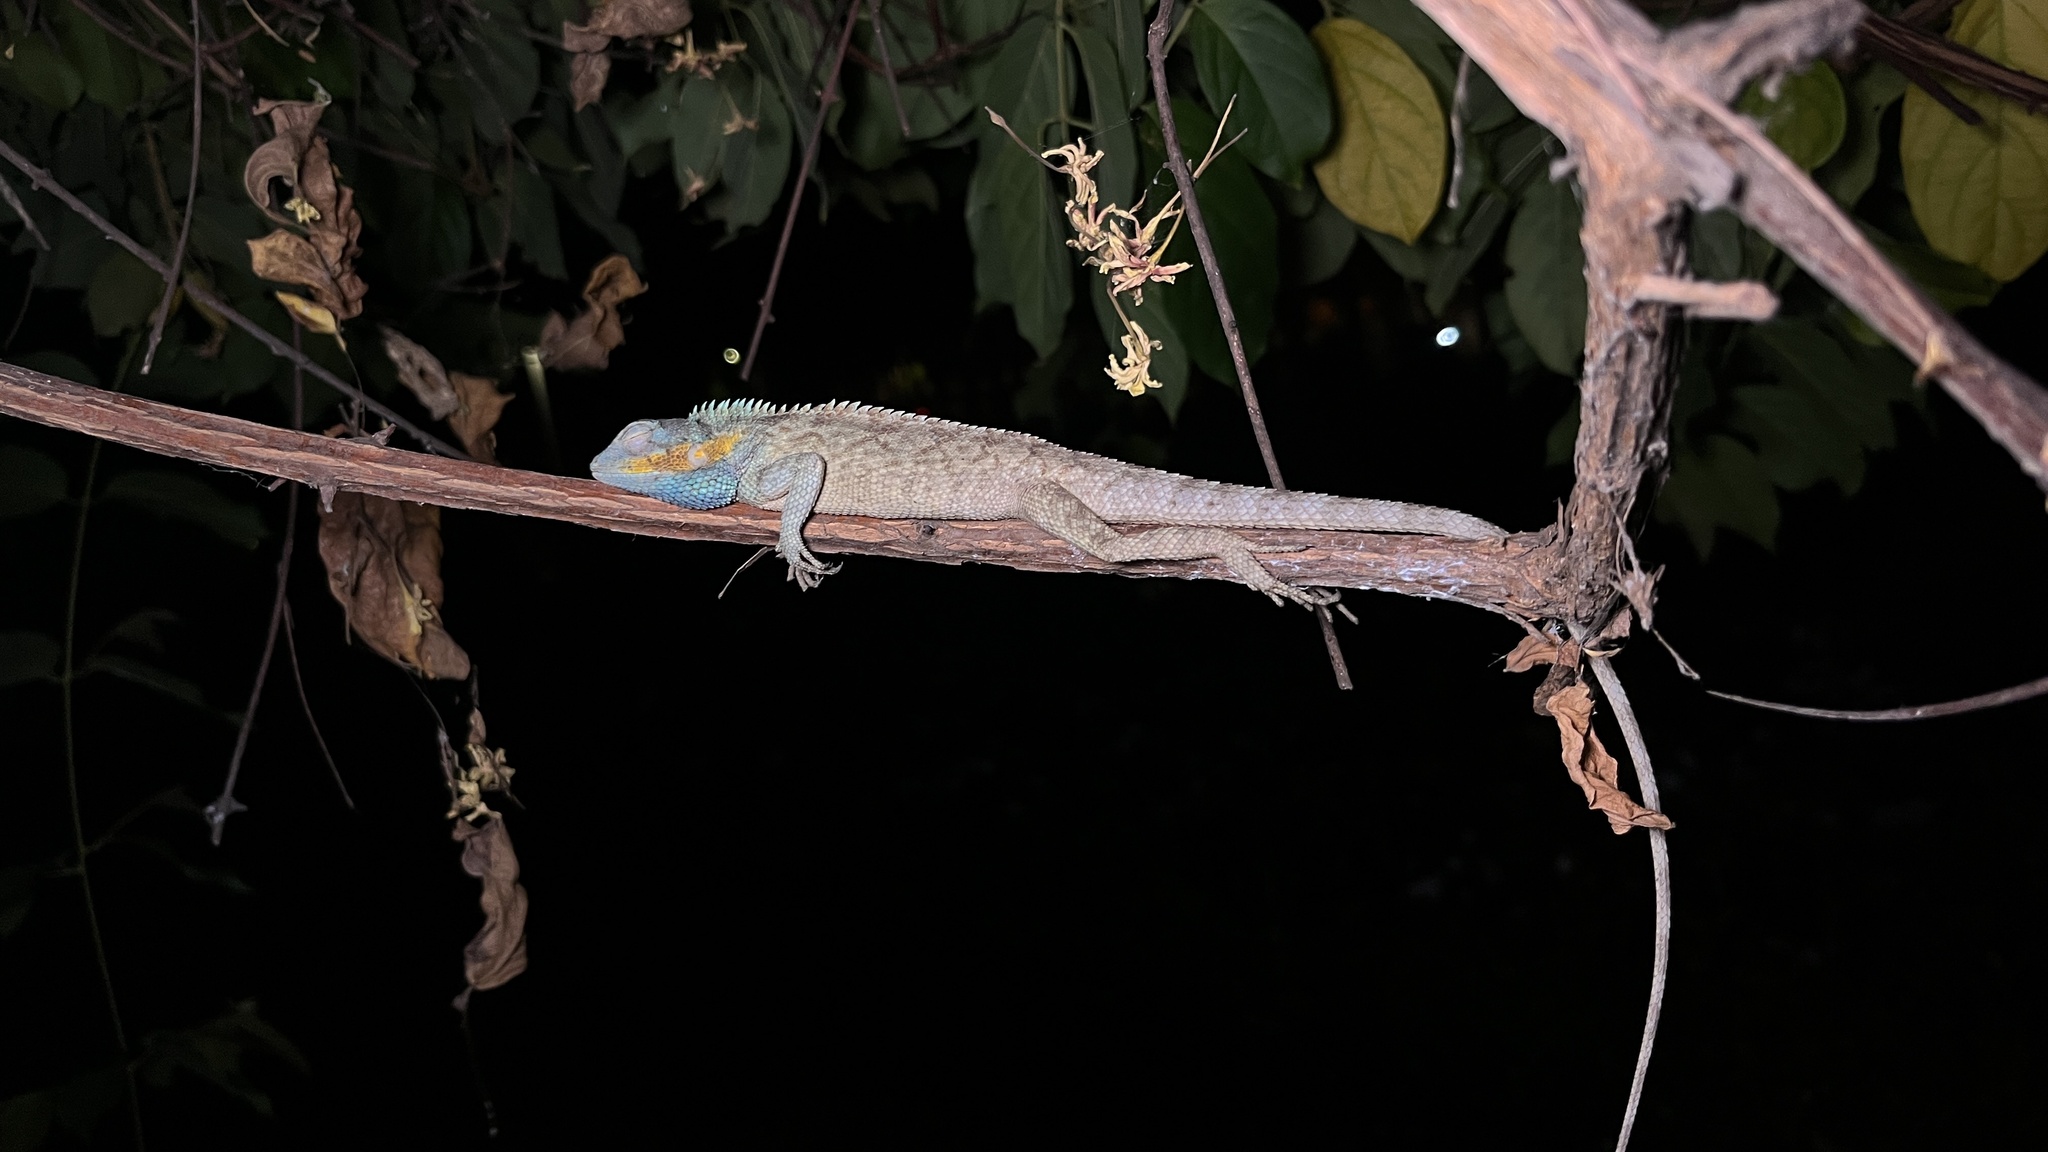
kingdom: Animalia
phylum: Chordata
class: Squamata
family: Agamidae
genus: Calotes
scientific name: Calotes bachae
